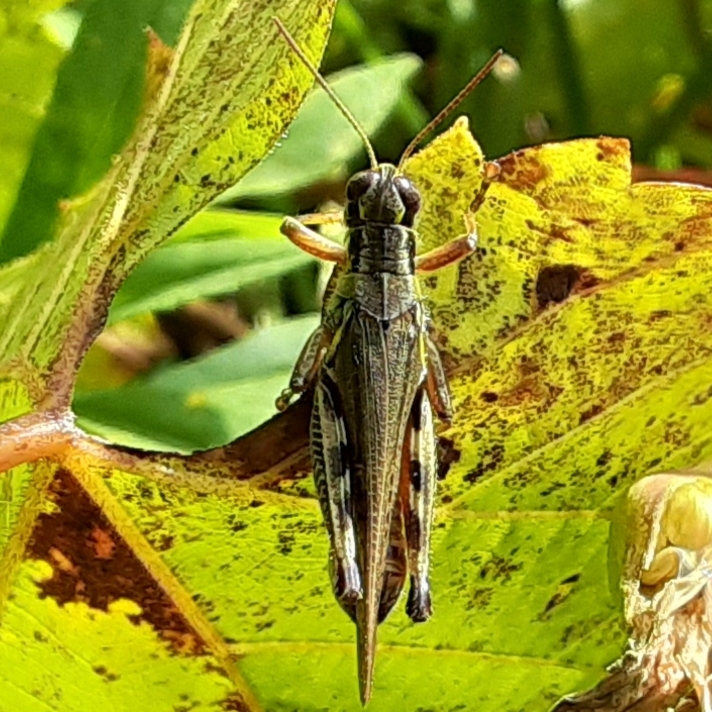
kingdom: Animalia
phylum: Arthropoda
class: Insecta
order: Orthoptera
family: Acrididae
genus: Melanoplus
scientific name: Melanoplus femurrubrum
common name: Red-legged grasshopper
